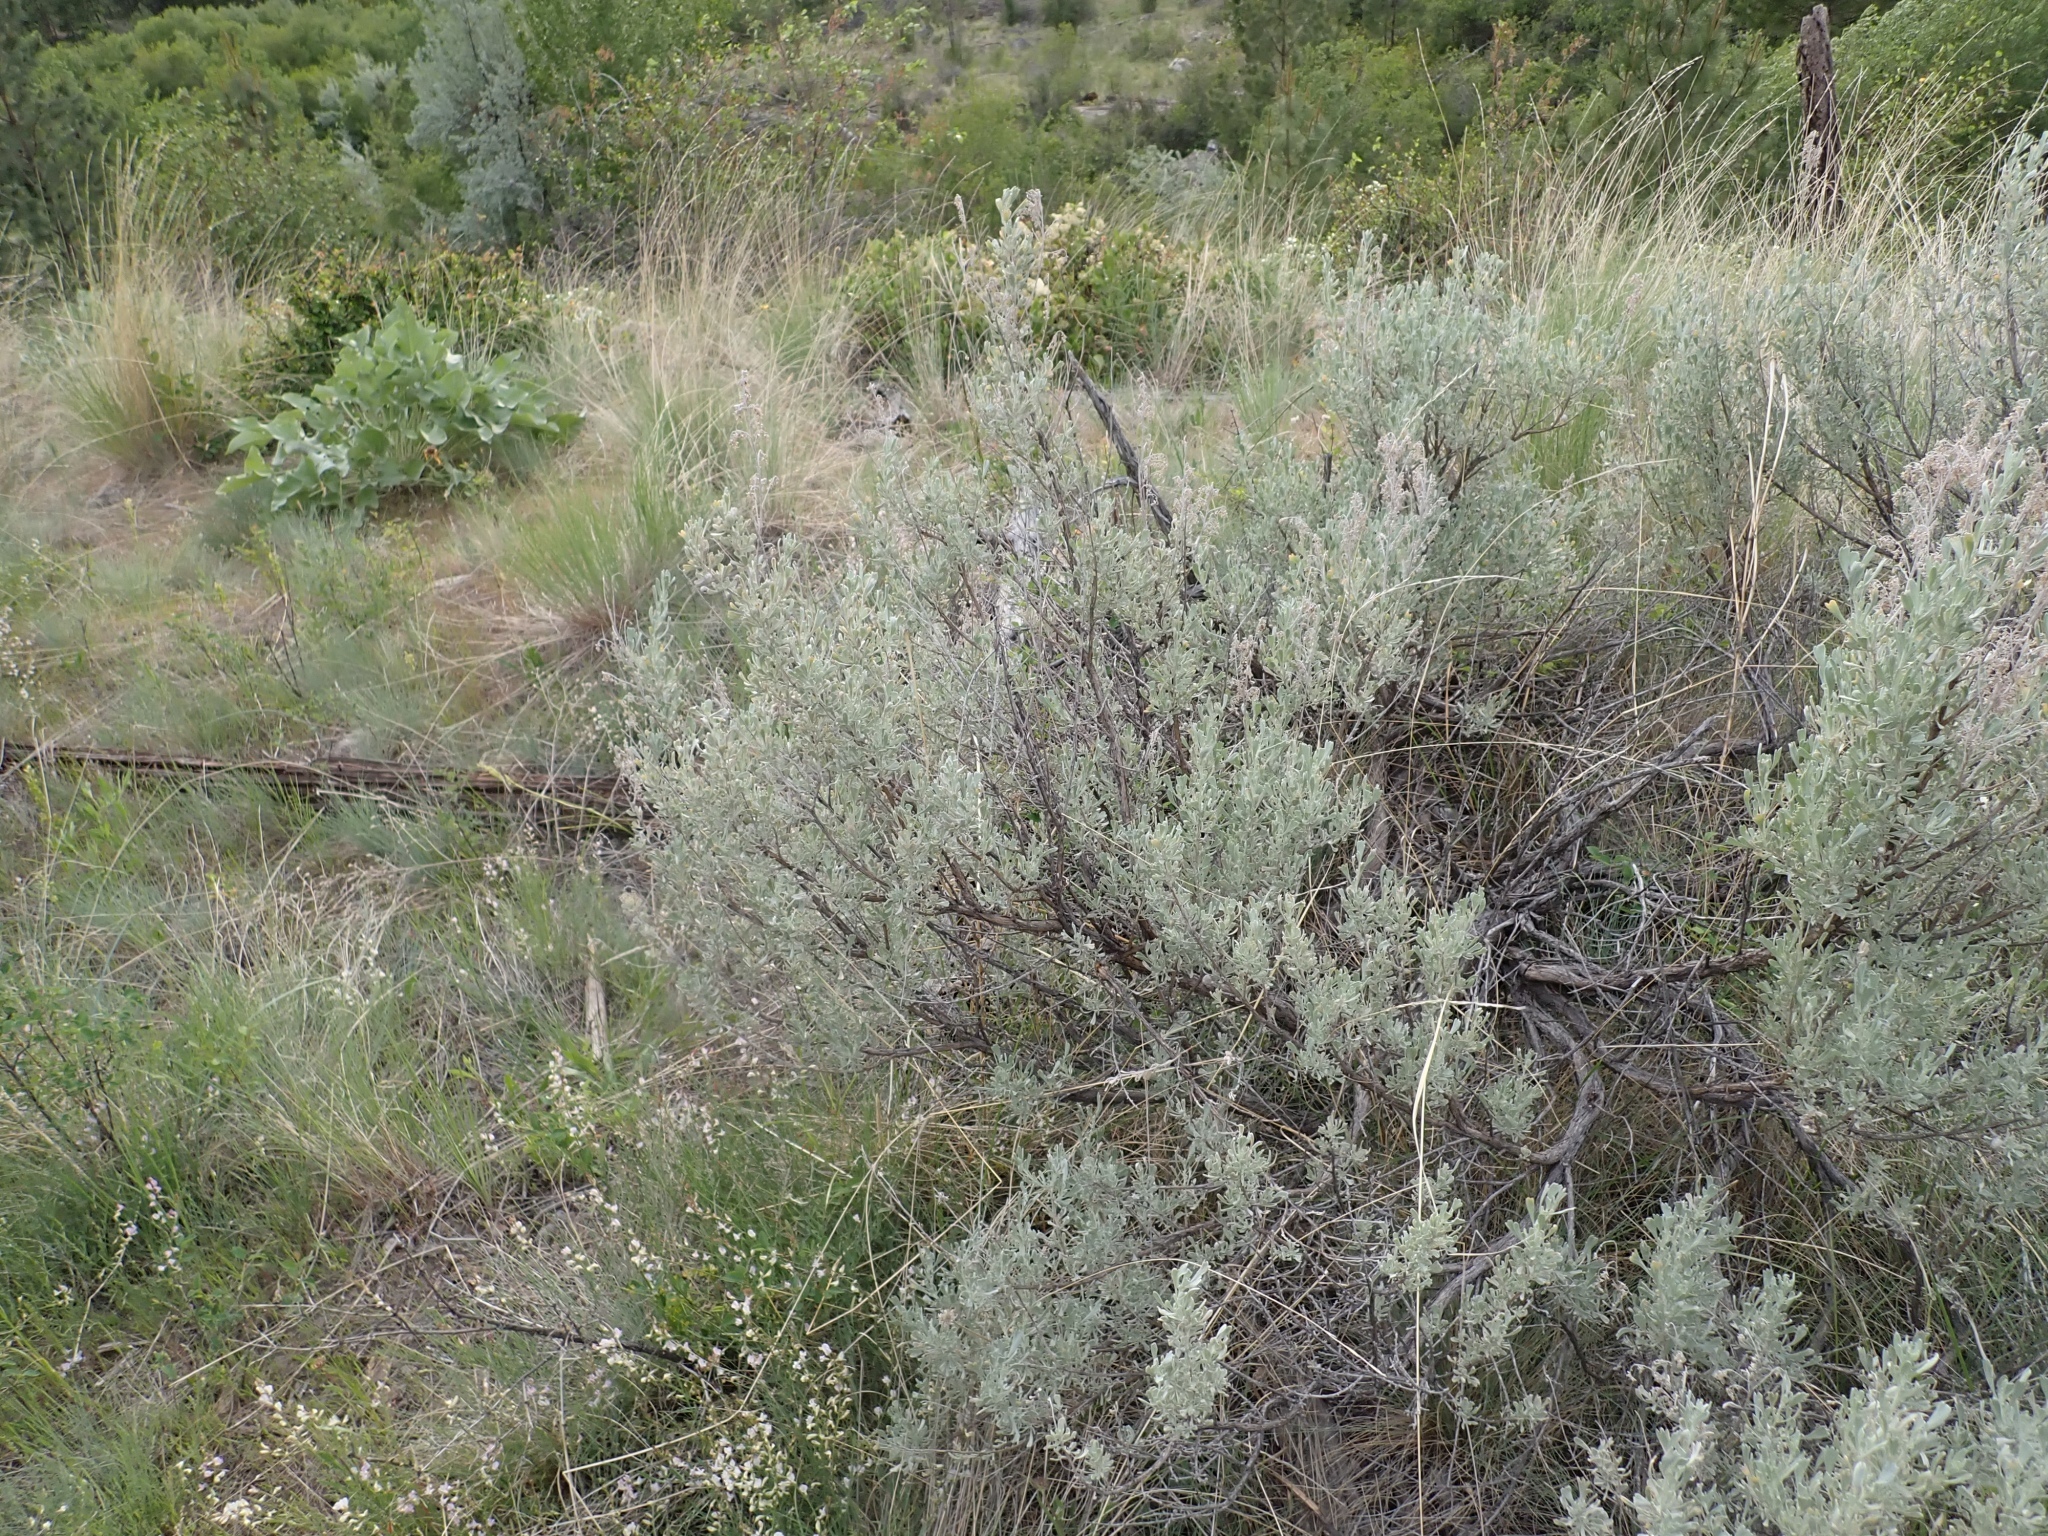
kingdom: Plantae
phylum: Tracheophyta
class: Magnoliopsida
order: Asterales
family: Asteraceae
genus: Artemisia
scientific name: Artemisia tridentata
